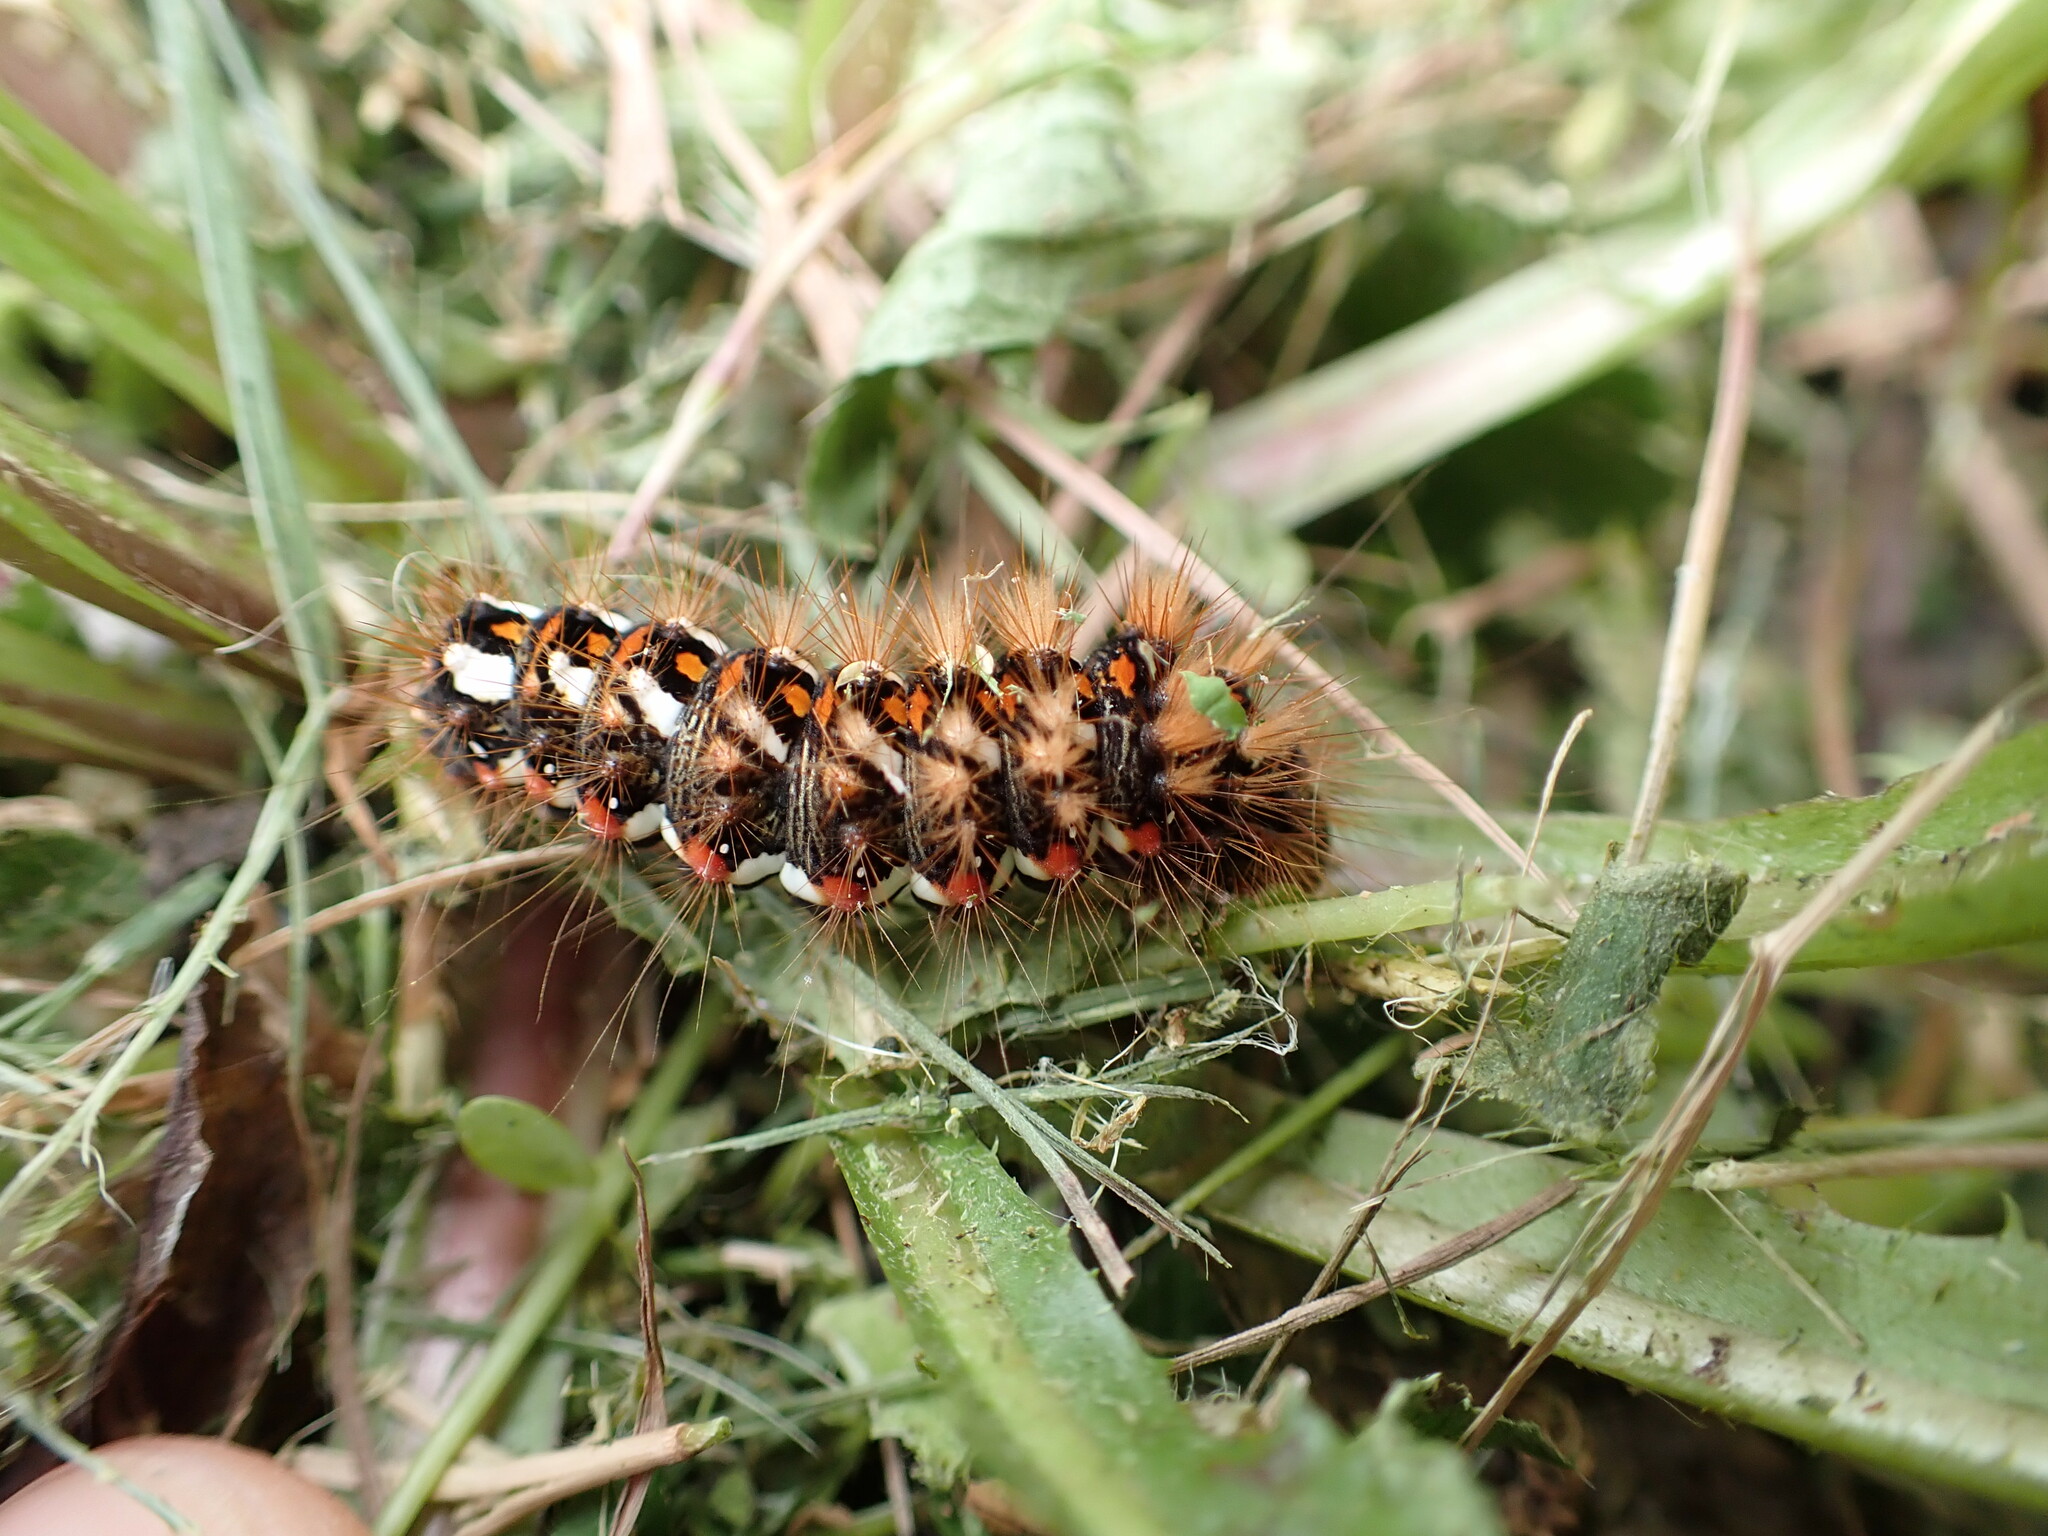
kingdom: Animalia
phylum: Arthropoda
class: Insecta
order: Lepidoptera
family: Noctuidae
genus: Acronicta
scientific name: Acronicta rumicis
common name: Knot grass
